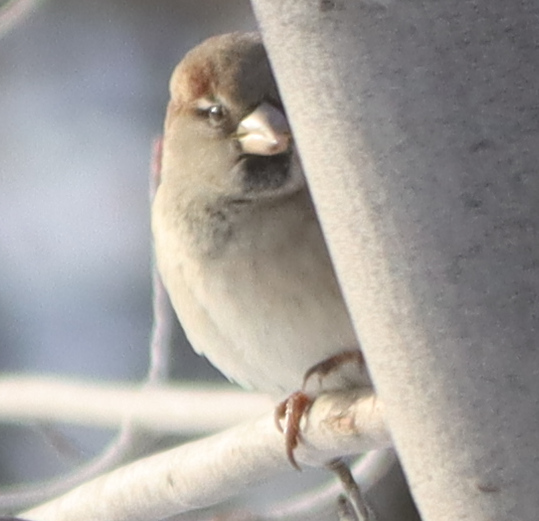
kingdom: Animalia
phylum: Chordata
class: Aves
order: Passeriformes
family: Passeridae
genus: Passer
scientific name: Passer domesticus
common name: House sparrow
